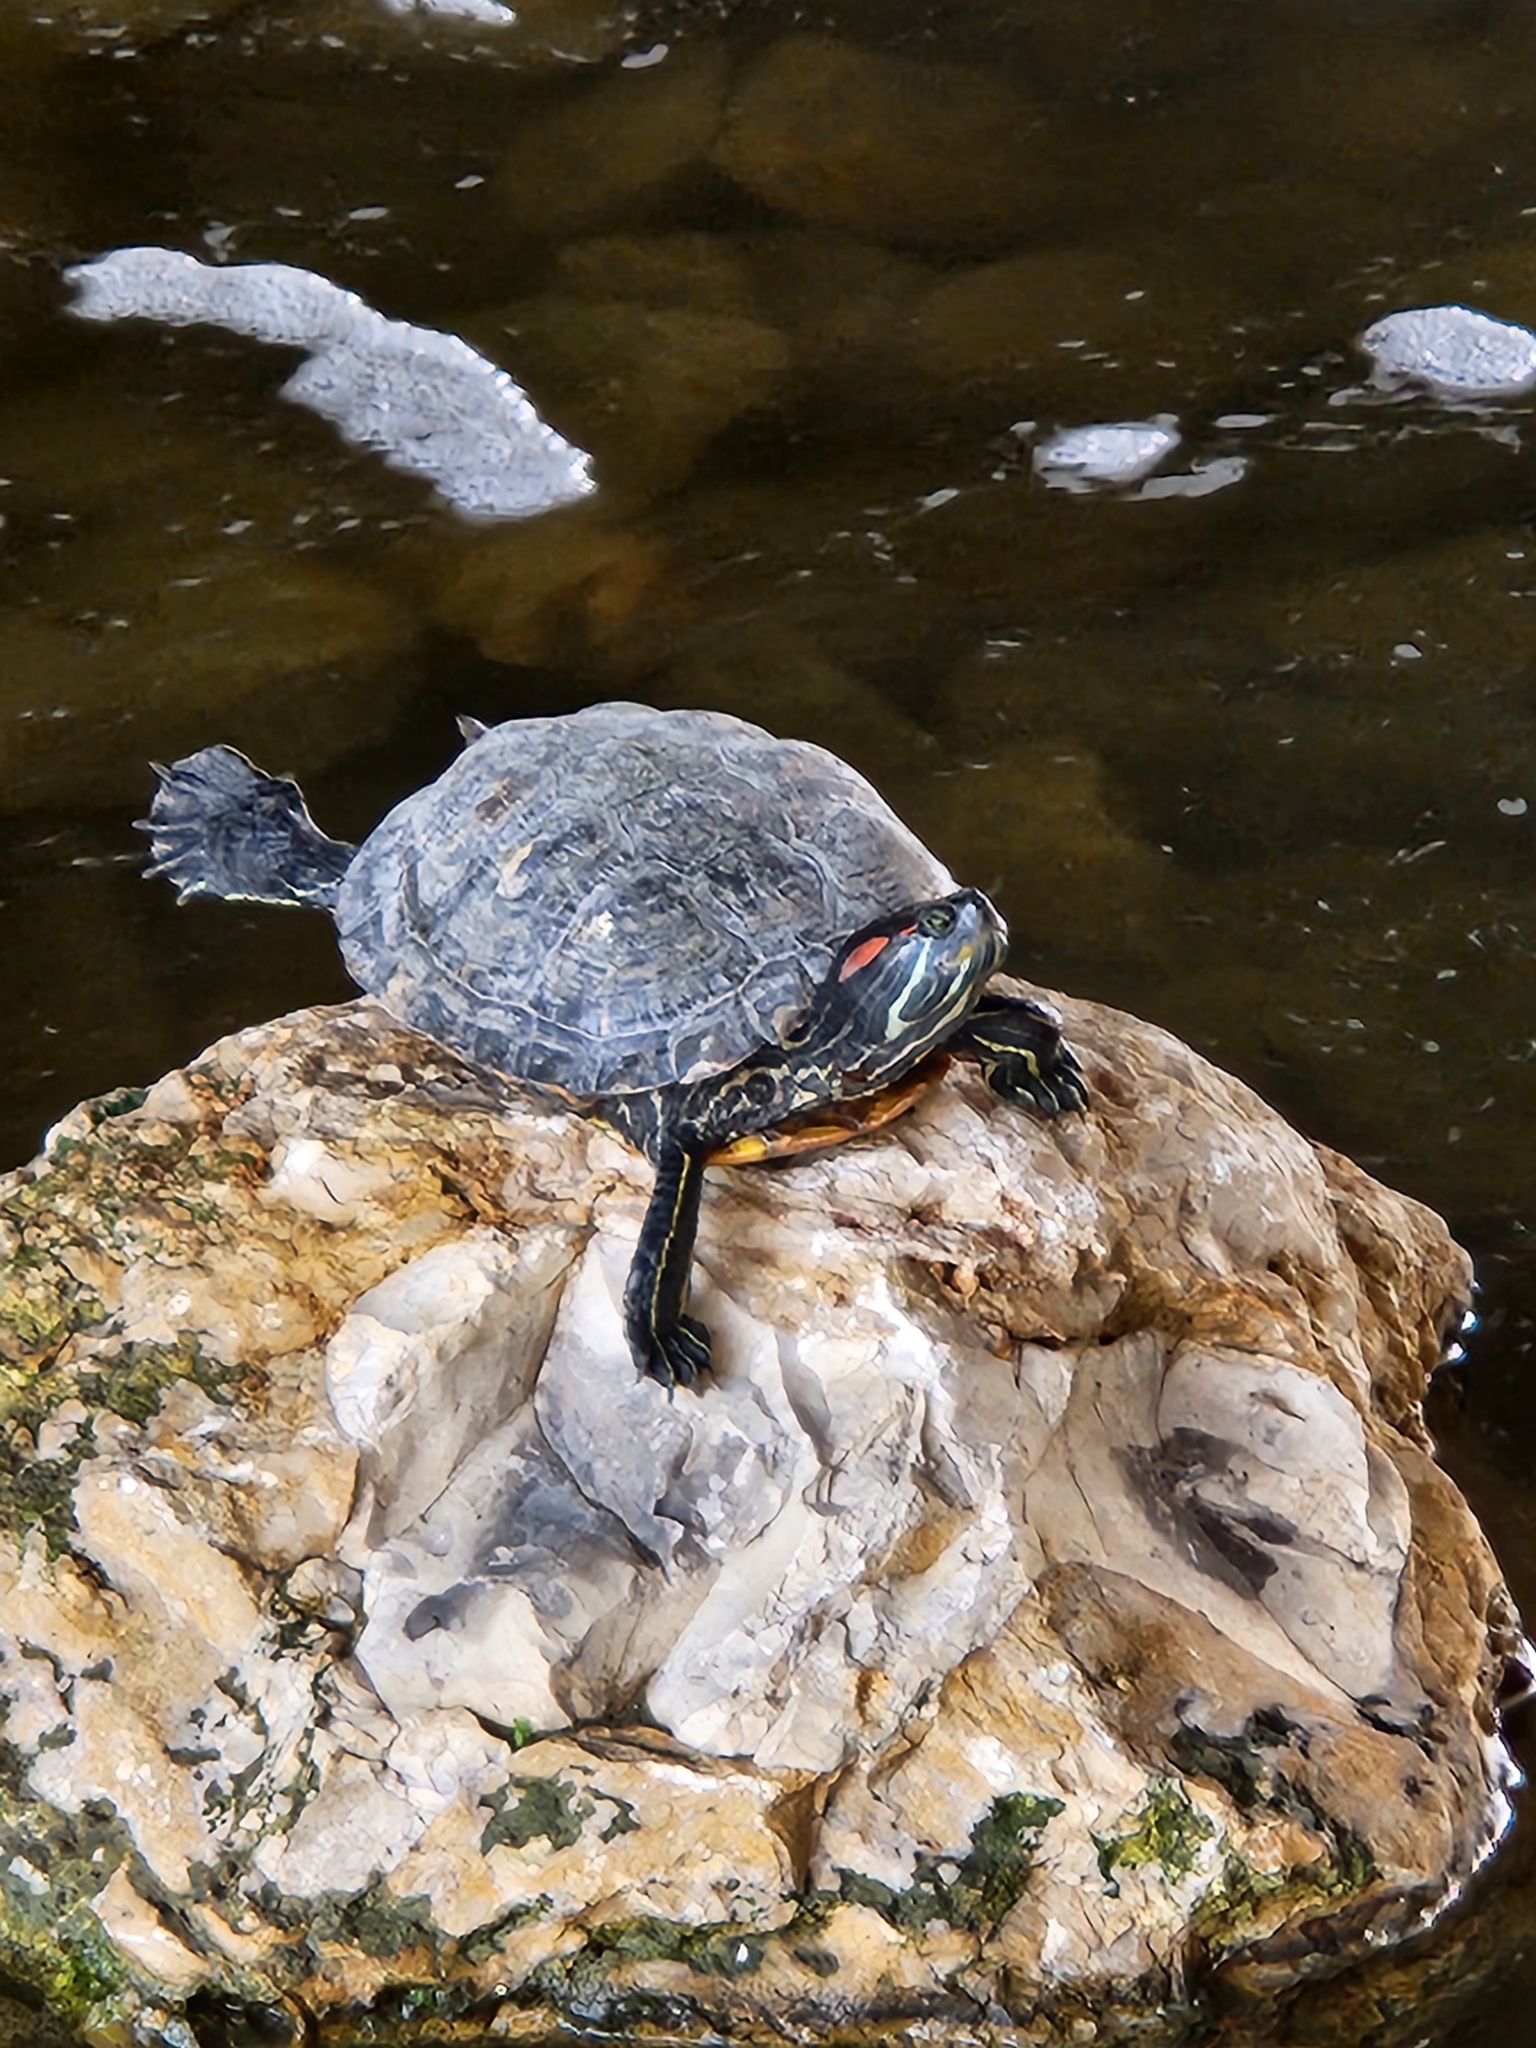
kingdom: Animalia
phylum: Chordata
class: Testudines
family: Emydidae
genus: Trachemys
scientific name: Trachemys scripta
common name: Slider
